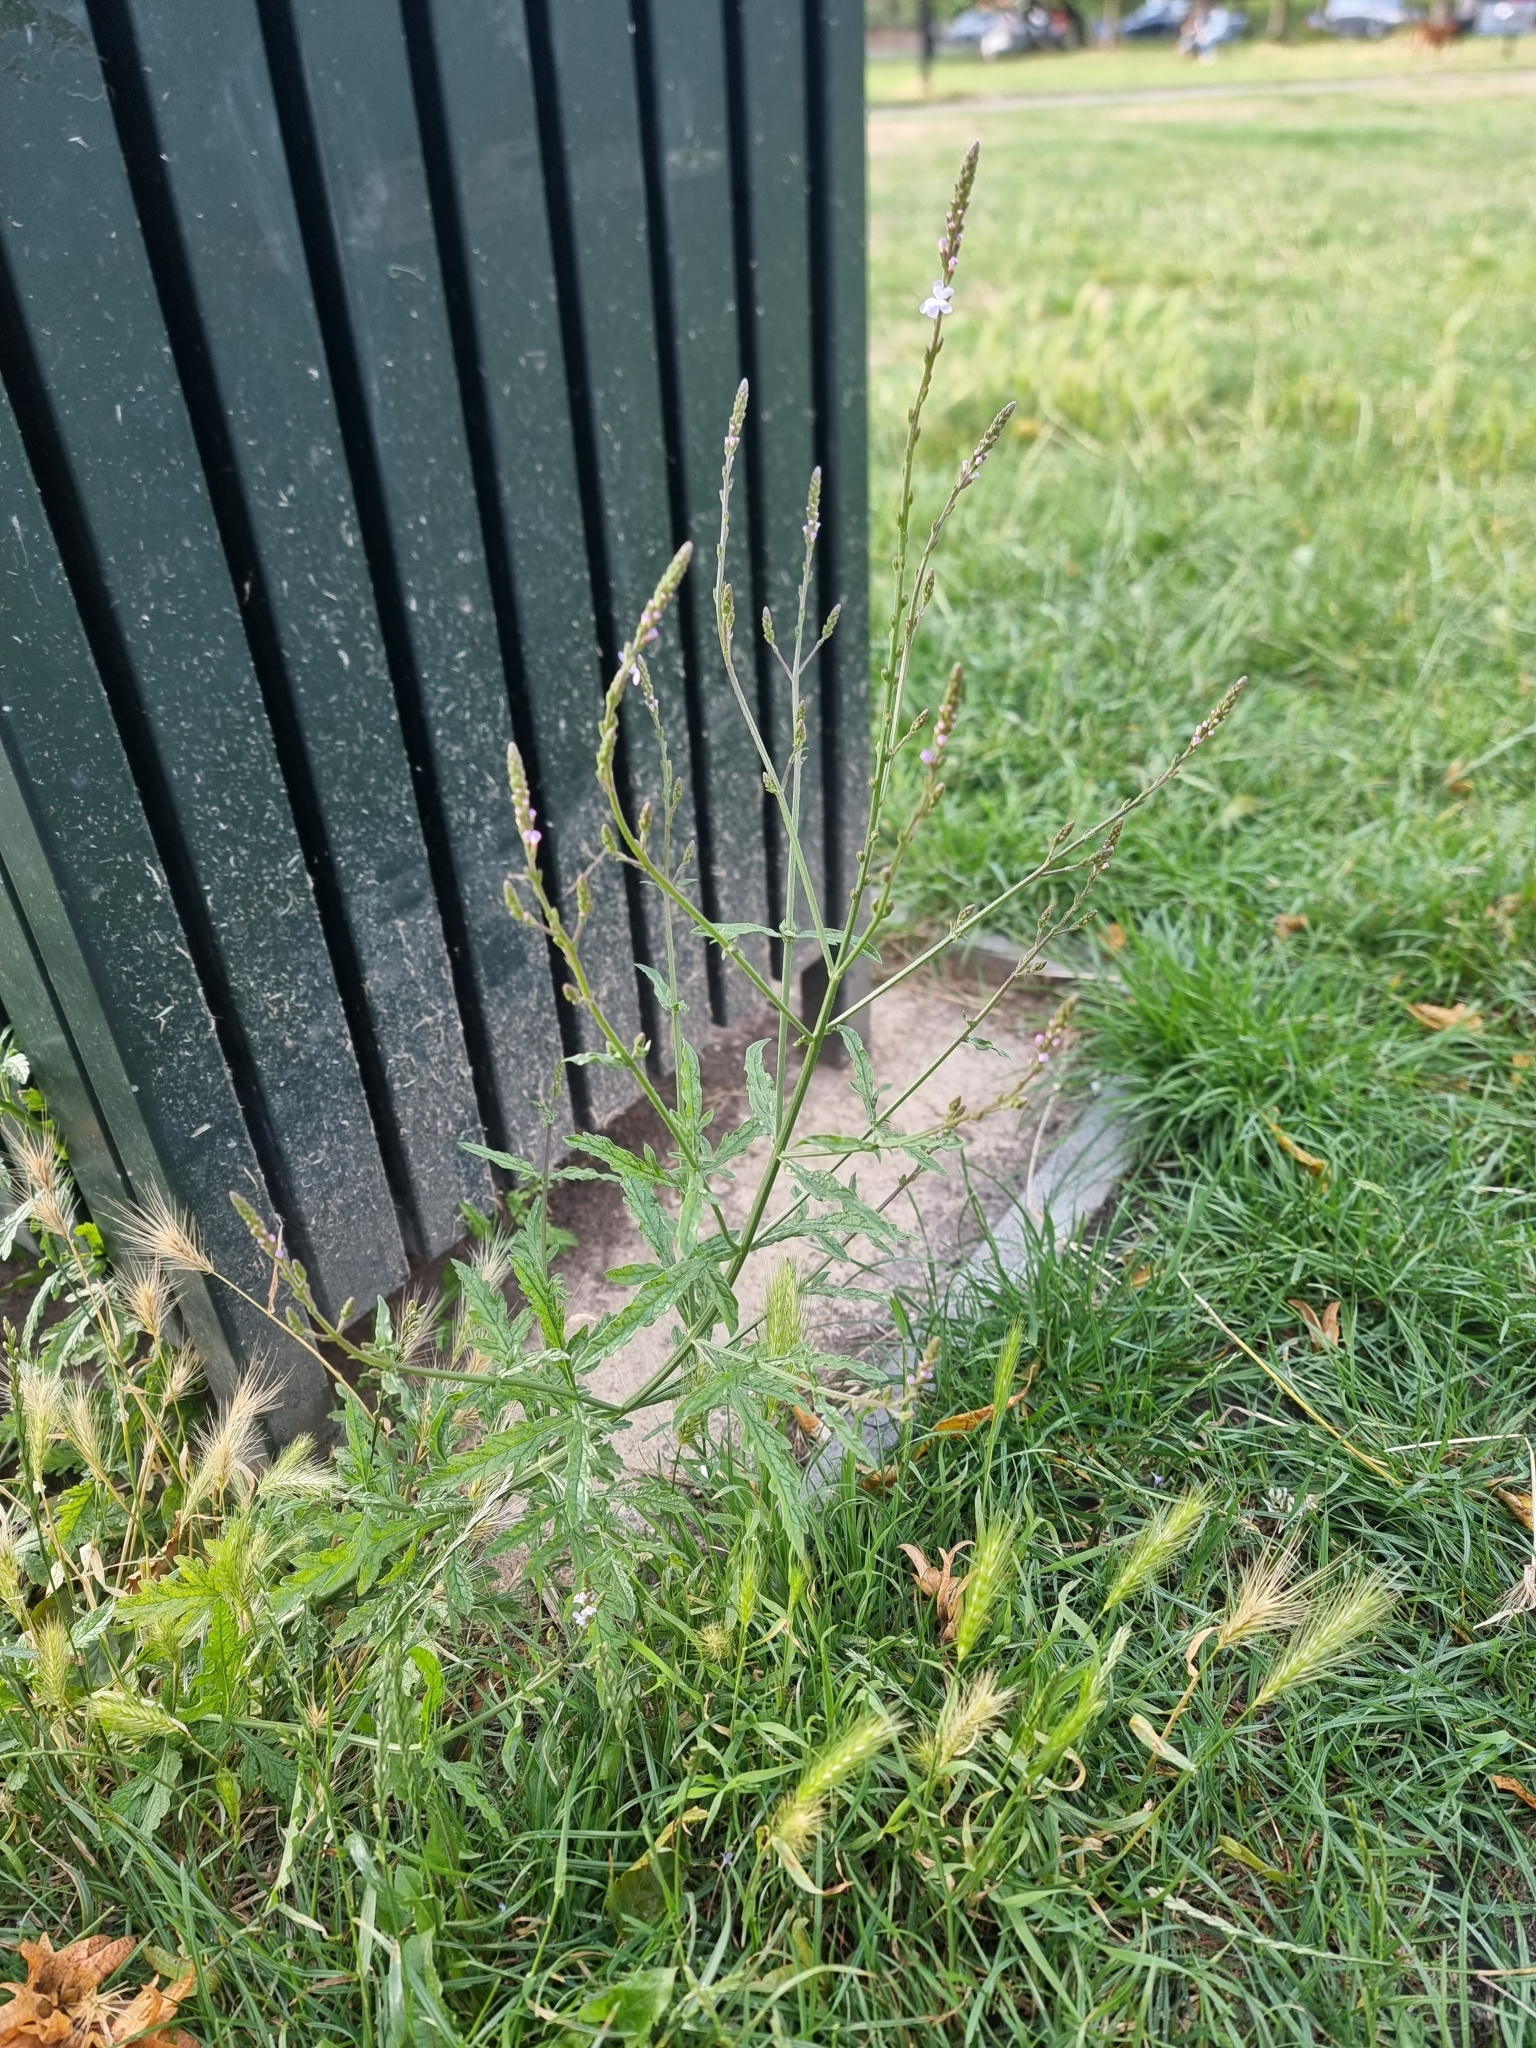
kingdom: Plantae
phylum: Tracheophyta
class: Magnoliopsida
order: Lamiales
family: Verbenaceae
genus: Verbena
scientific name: Verbena officinalis
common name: Vervain
